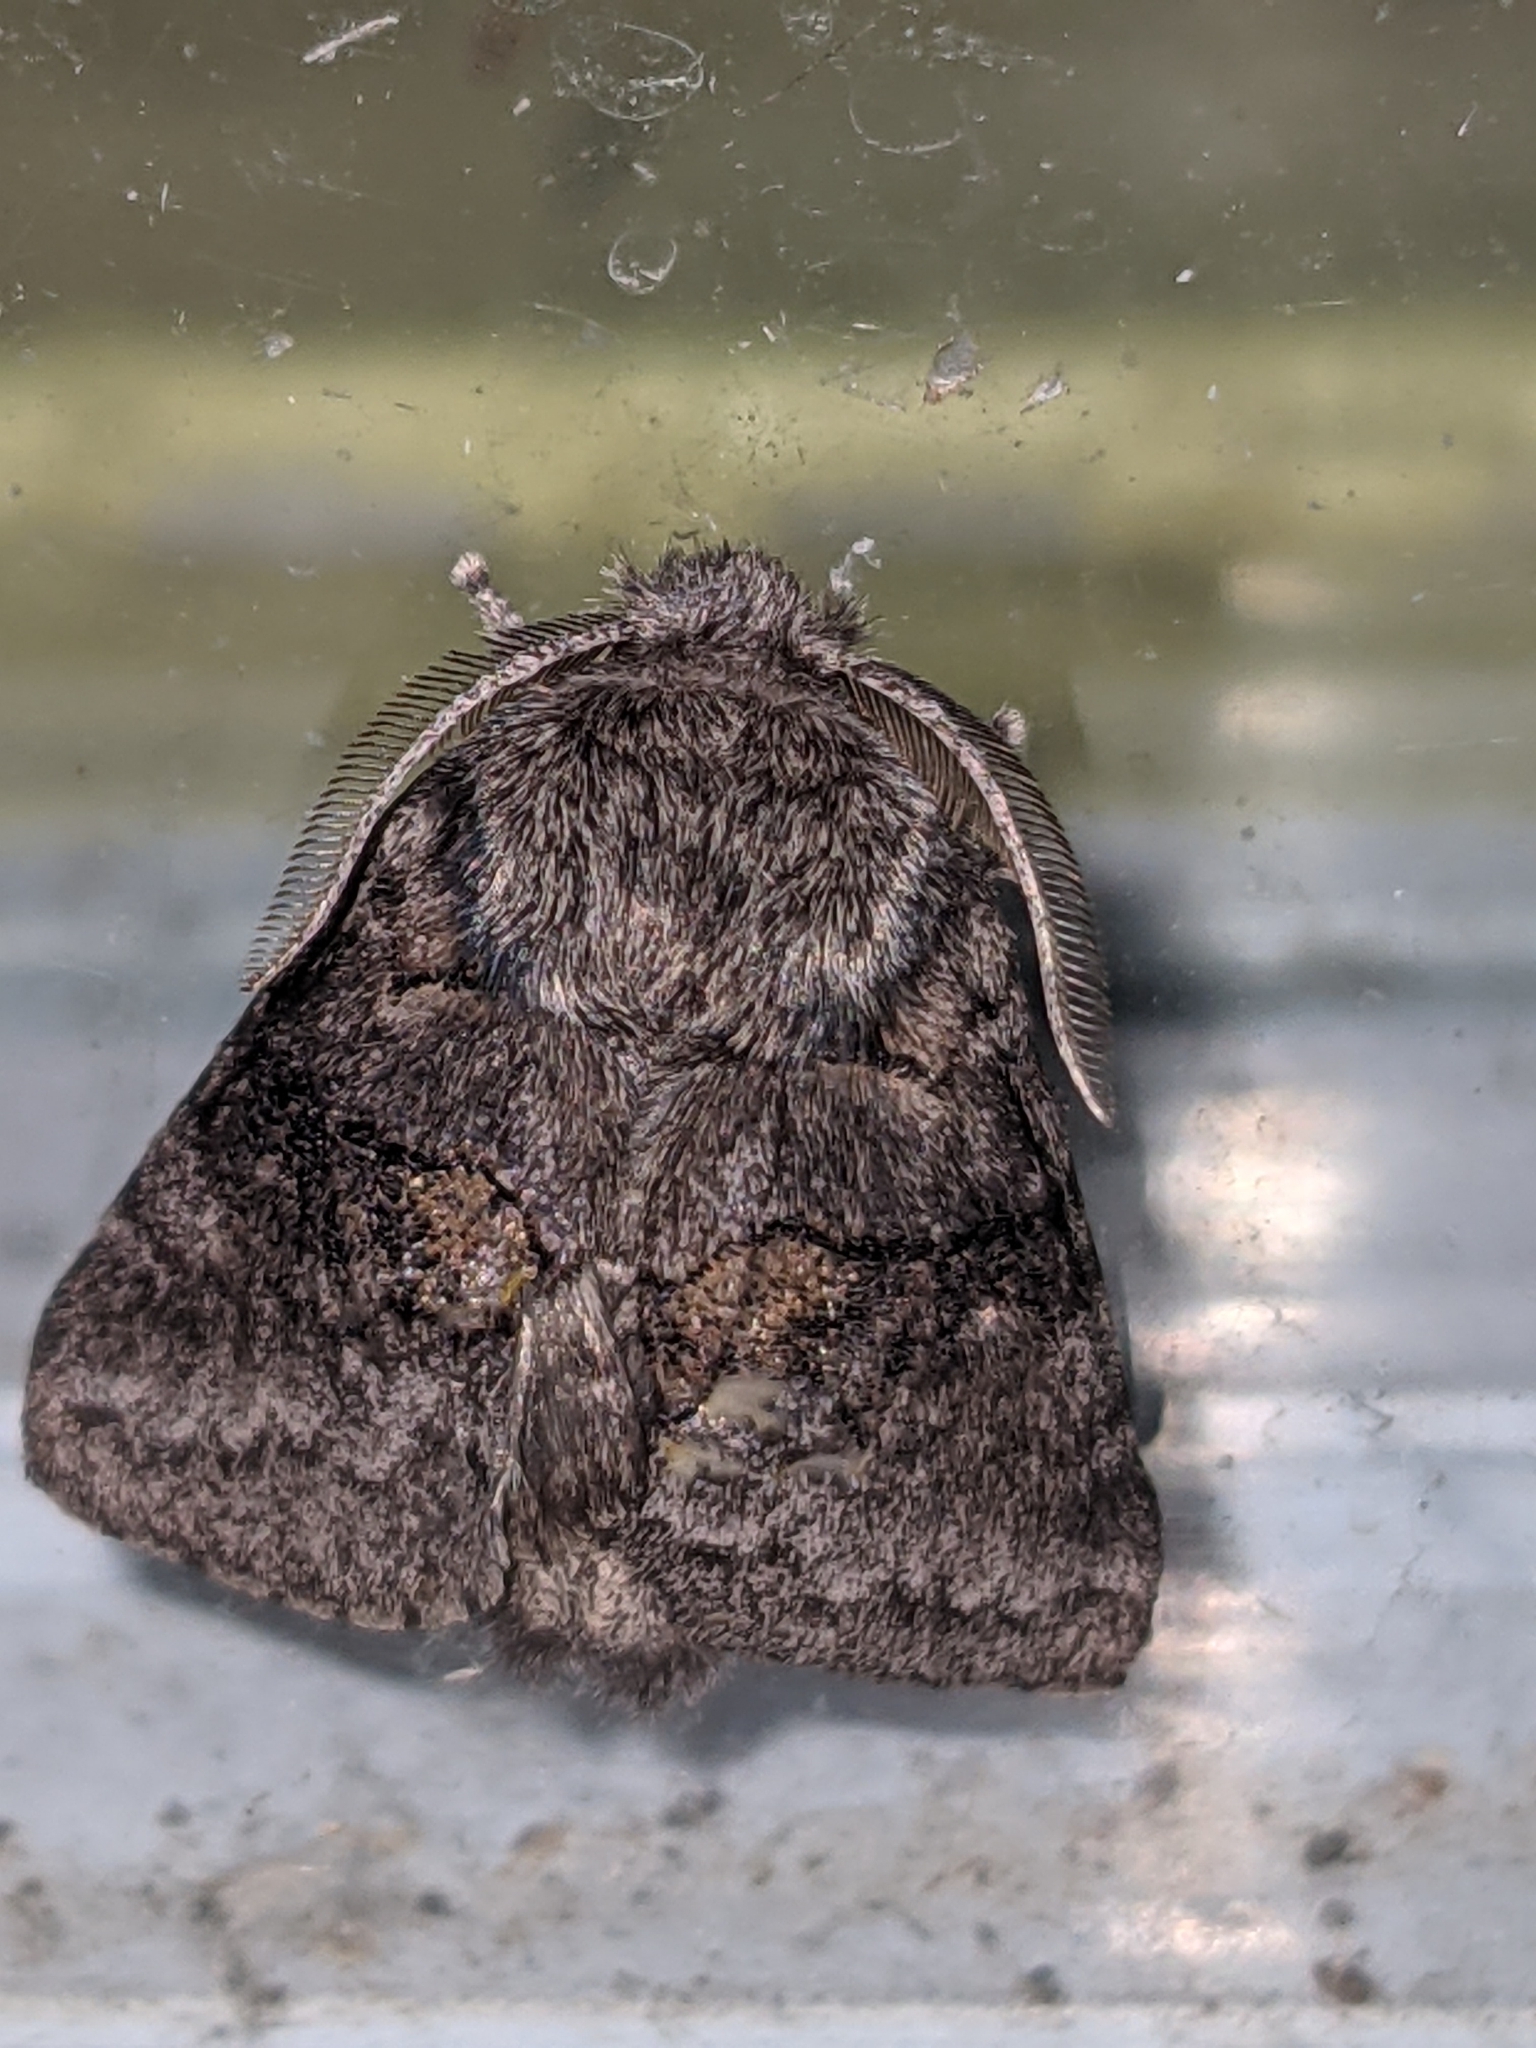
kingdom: Animalia
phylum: Arthropoda
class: Insecta
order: Lepidoptera
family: Notodontidae
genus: Gluphisia
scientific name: Gluphisia septentrionis
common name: Common gluphisia
